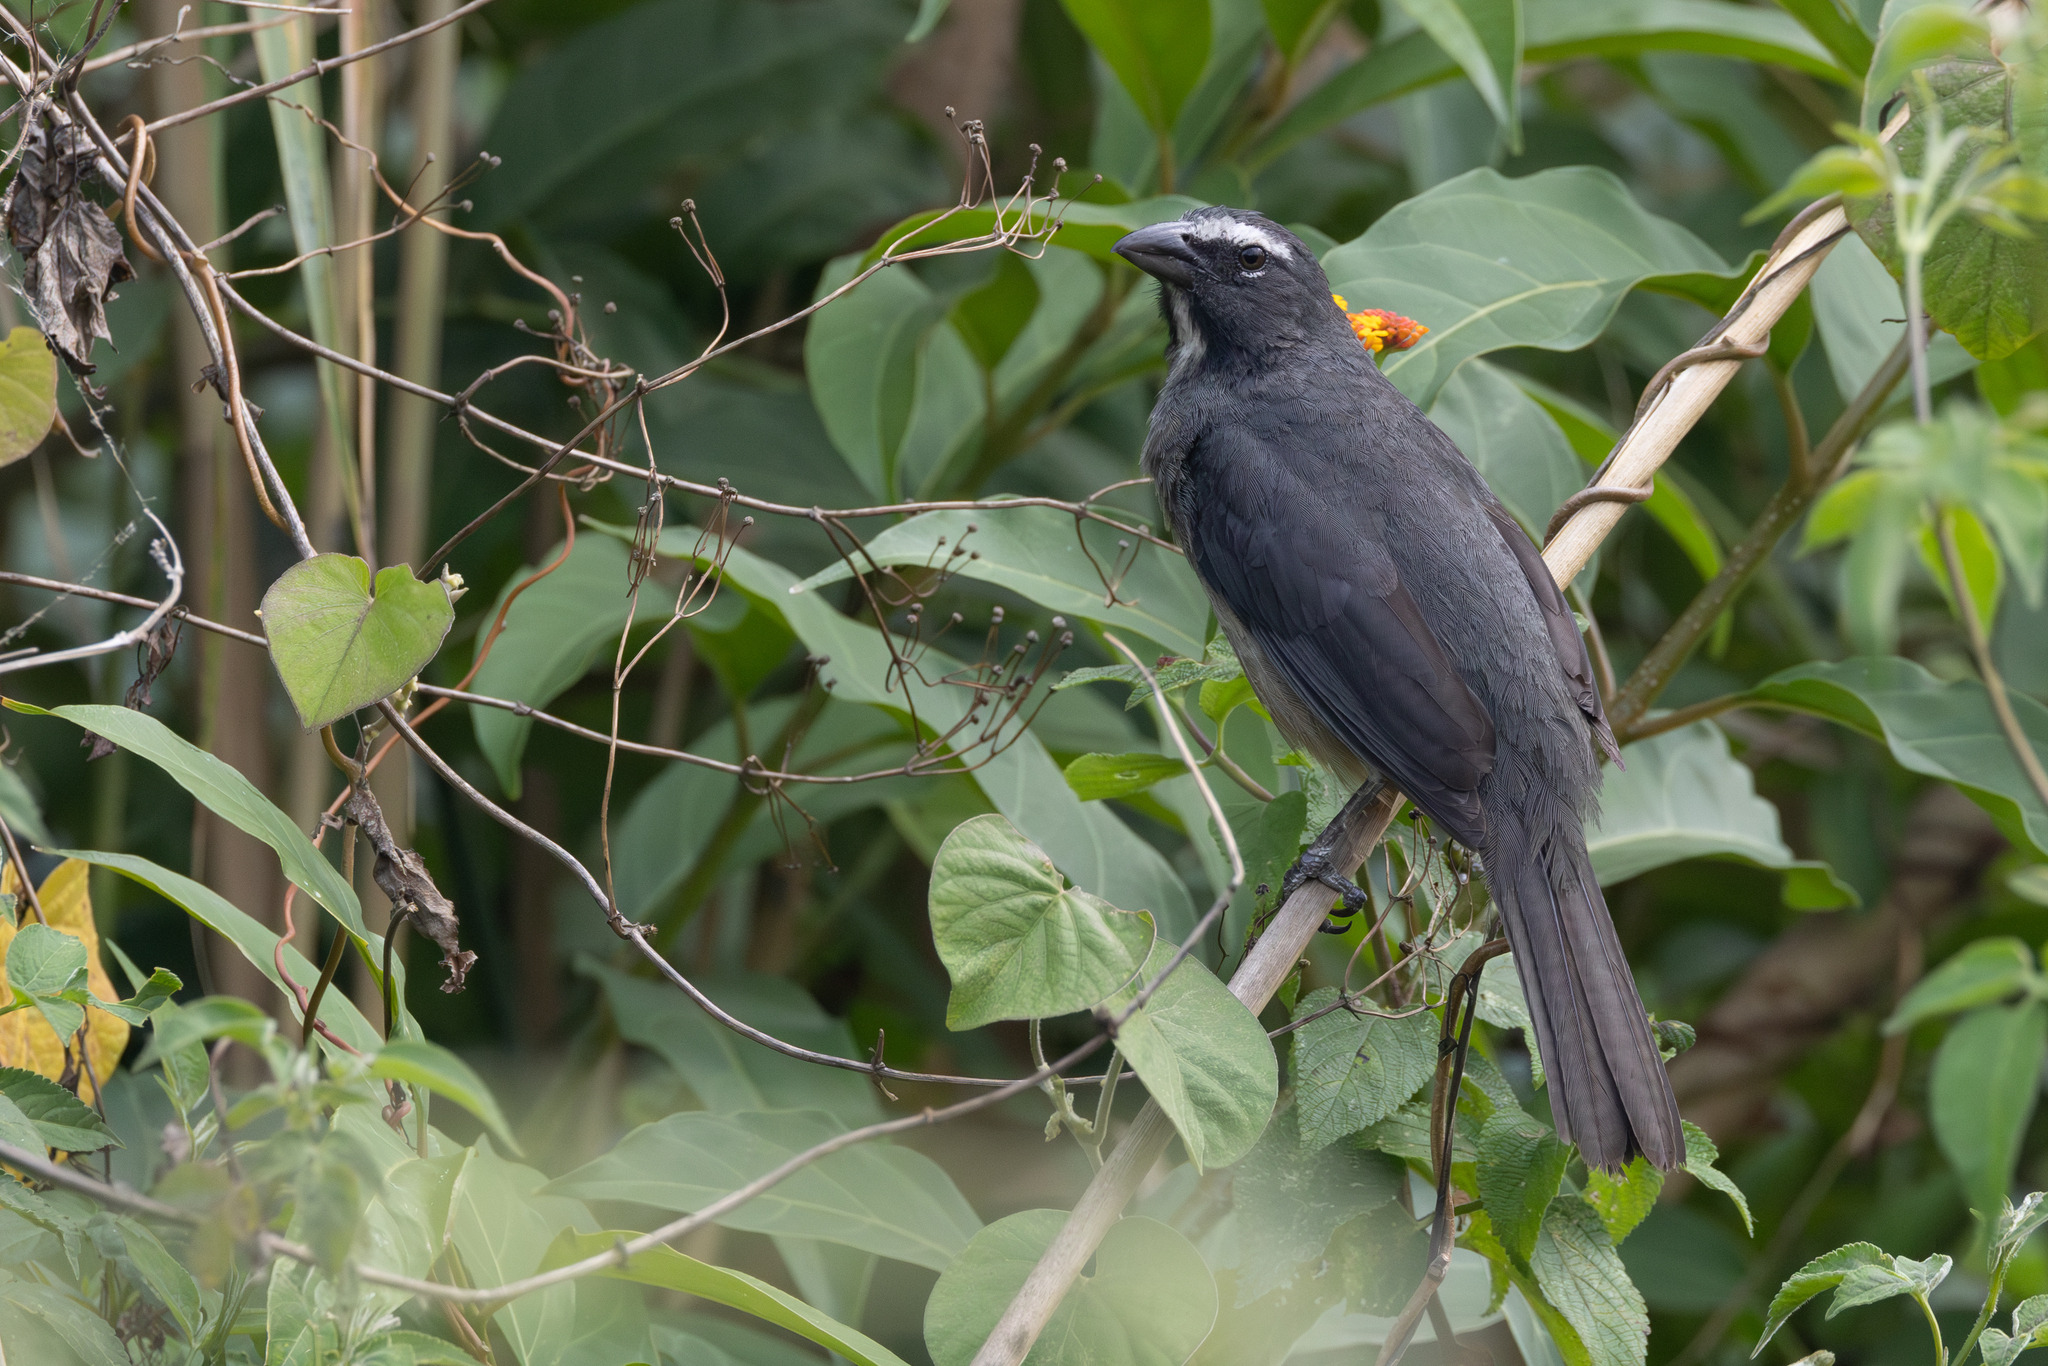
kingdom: Animalia
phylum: Chordata
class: Aves
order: Passeriformes
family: Thraupidae
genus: Saltator
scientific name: Saltator grandis
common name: Cinnamon-bellied saltator
